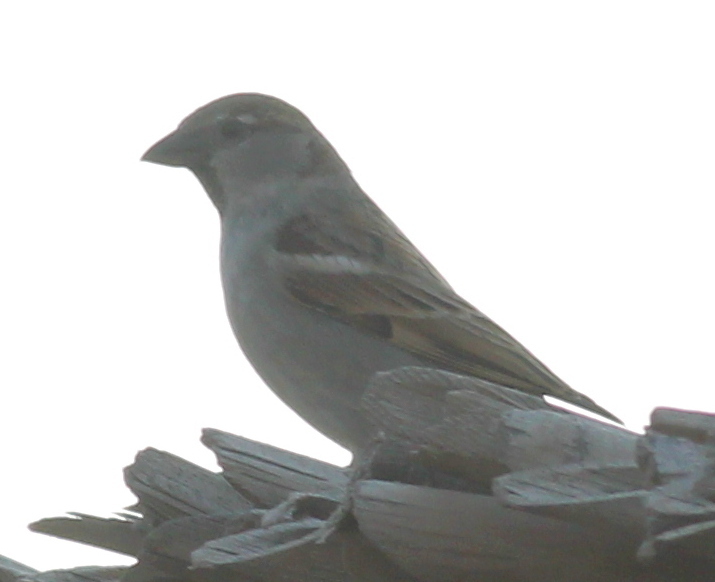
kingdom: Animalia
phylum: Chordata
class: Aves
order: Passeriformes
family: Passeridae
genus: Passer
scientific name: Passer domesticus
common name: House sparrow
